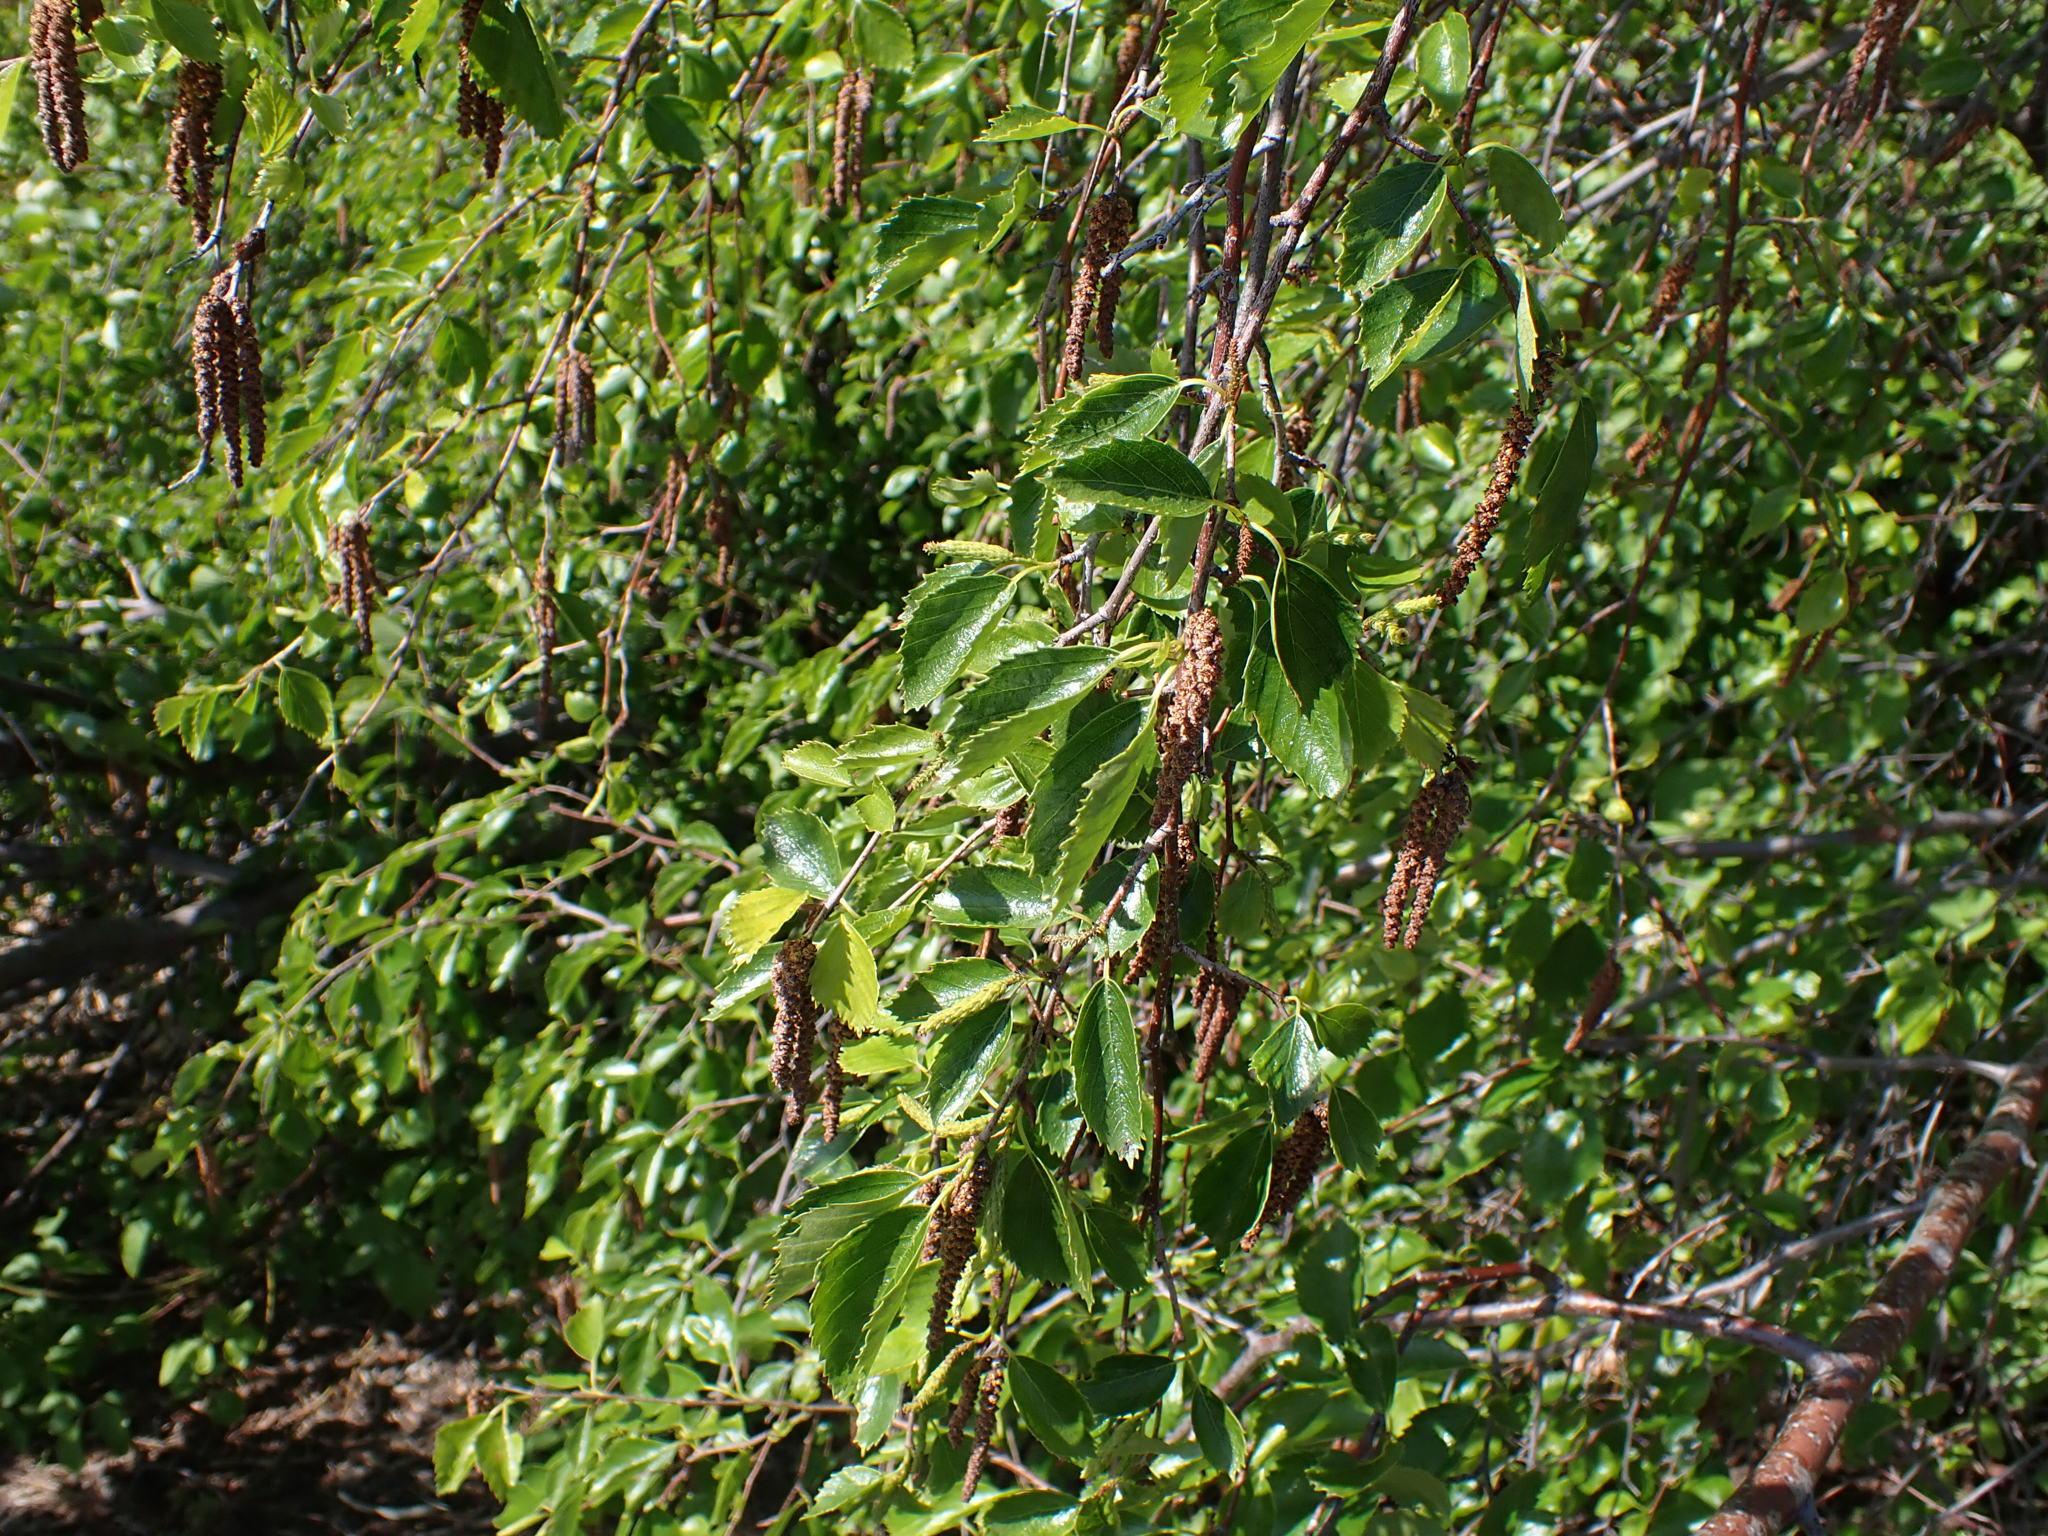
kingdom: Plantae
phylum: Tracheophyta
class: Magnoliopsida
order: Fagales
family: Betulaceae
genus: Betula
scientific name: Betula occidentalis
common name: River birch
